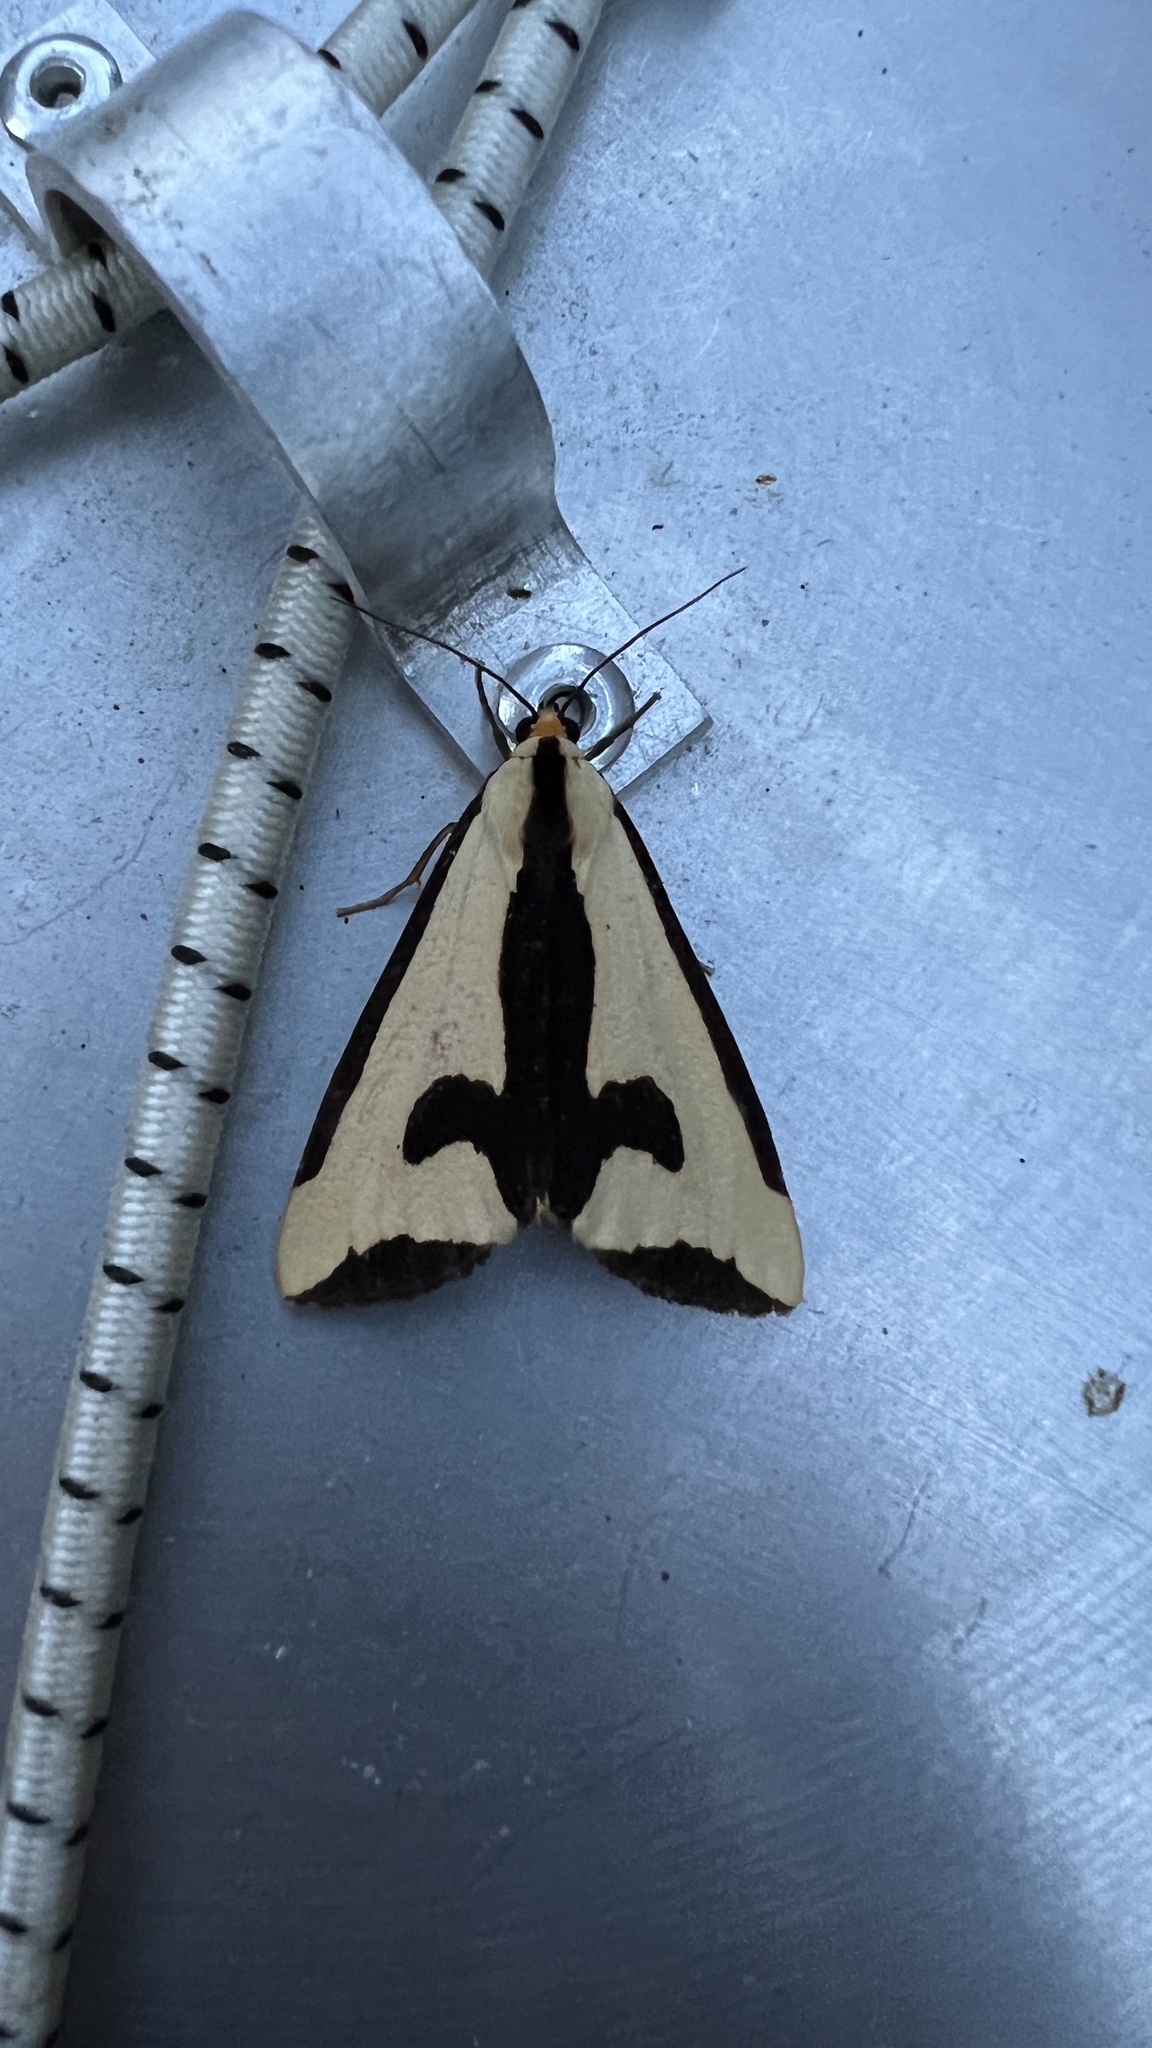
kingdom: Animalia
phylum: Arthropoda
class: Insecta
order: Lepidoptera
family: Erebidae
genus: Haploa
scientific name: Haploa clymene
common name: Clymene moth
